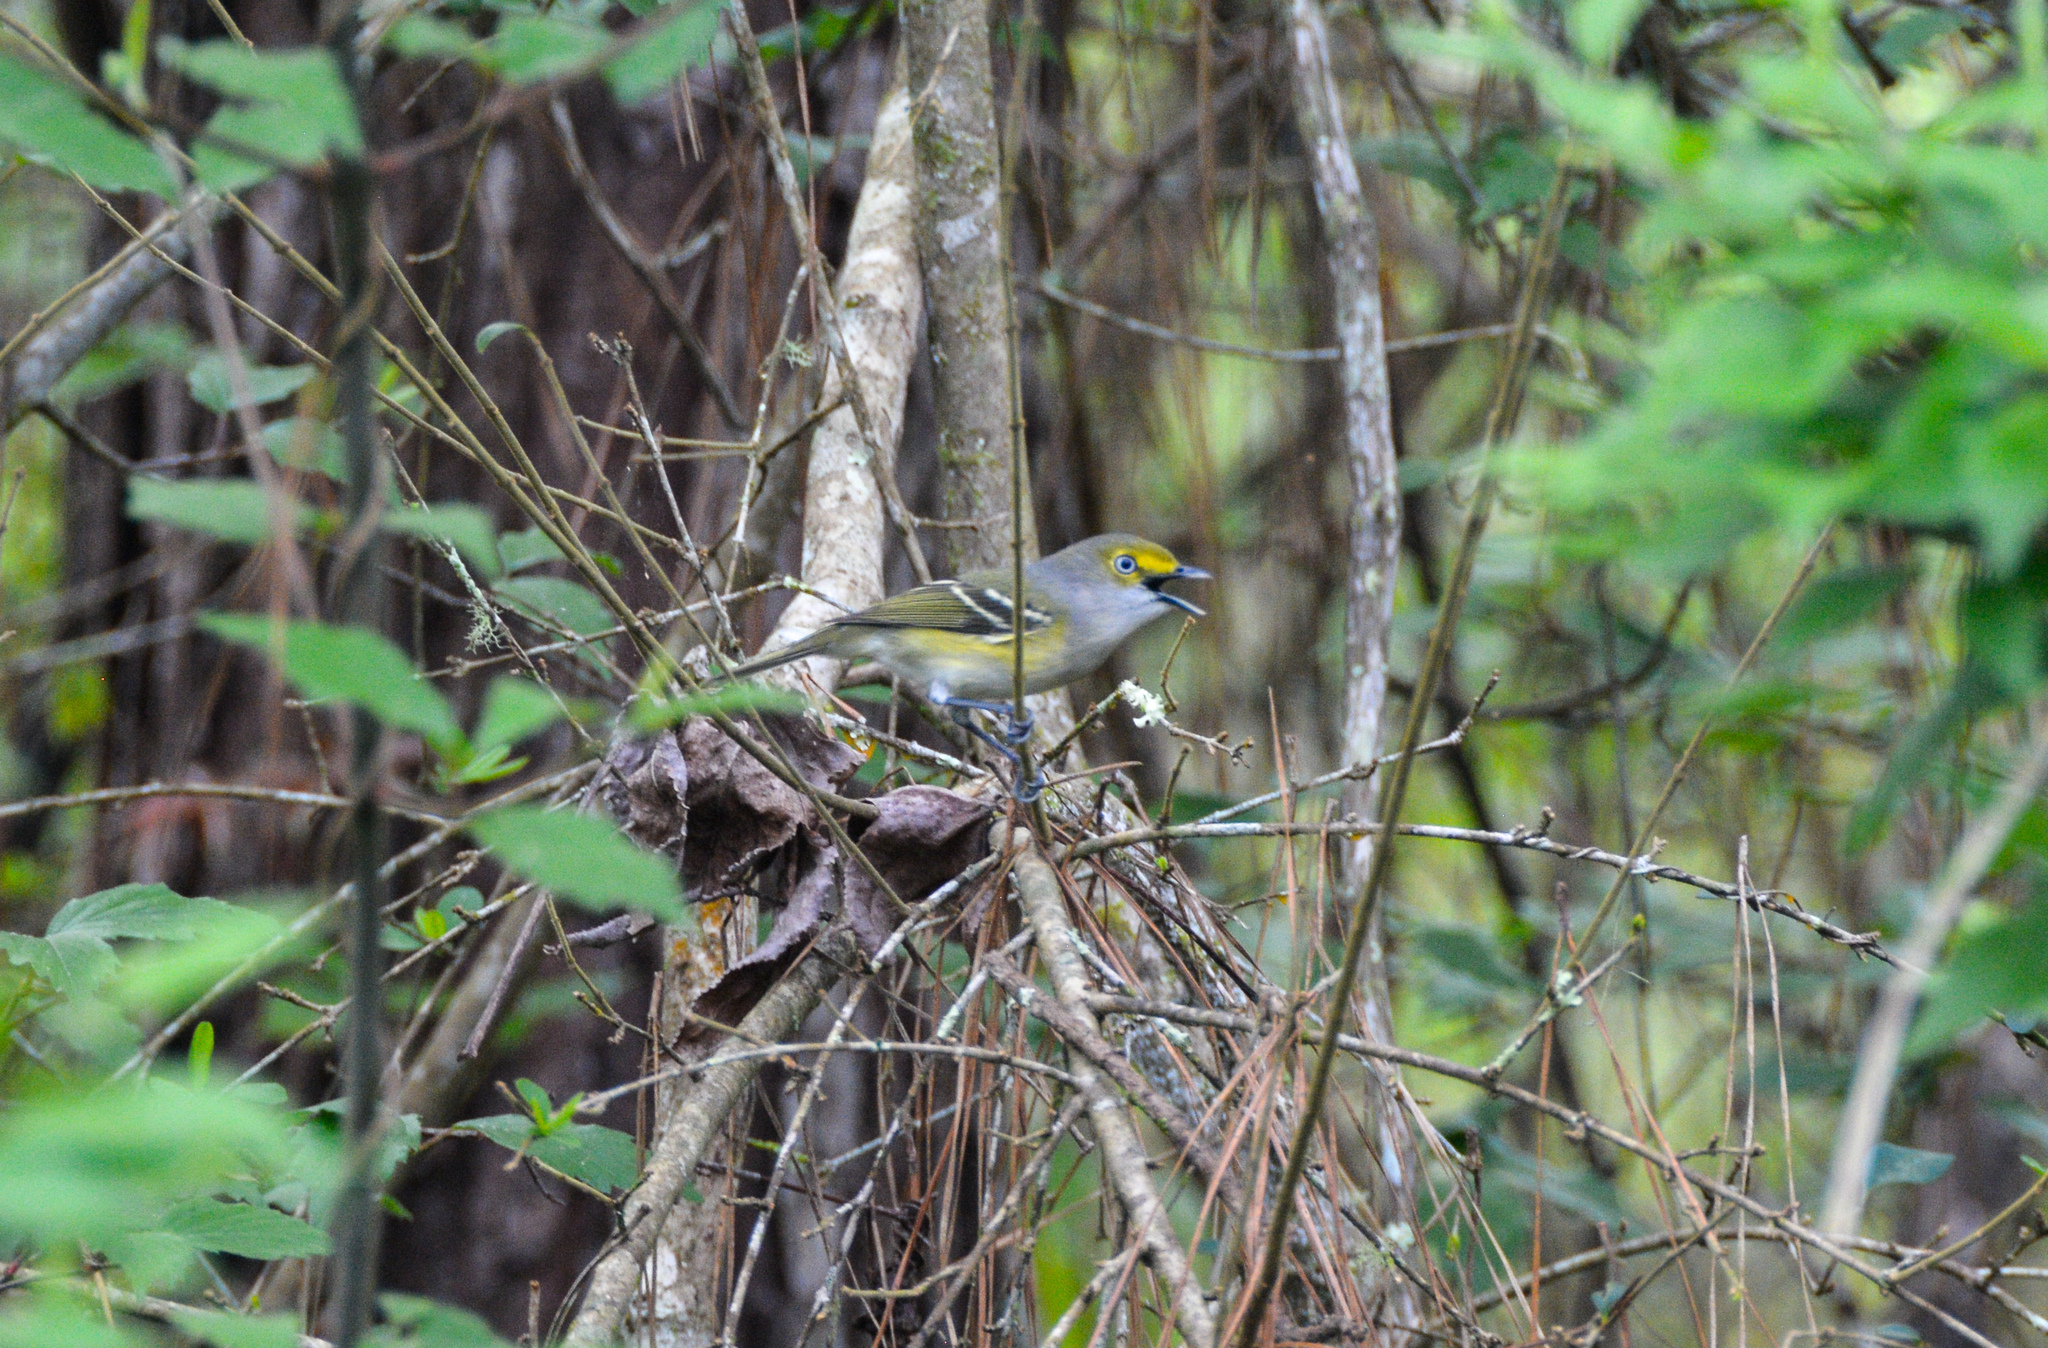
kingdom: Animalia
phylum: Chordata
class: Aves
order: Passeriformes
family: Vireonidae
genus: Vireo
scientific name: Vireo griseus
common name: White-eyed vireo
